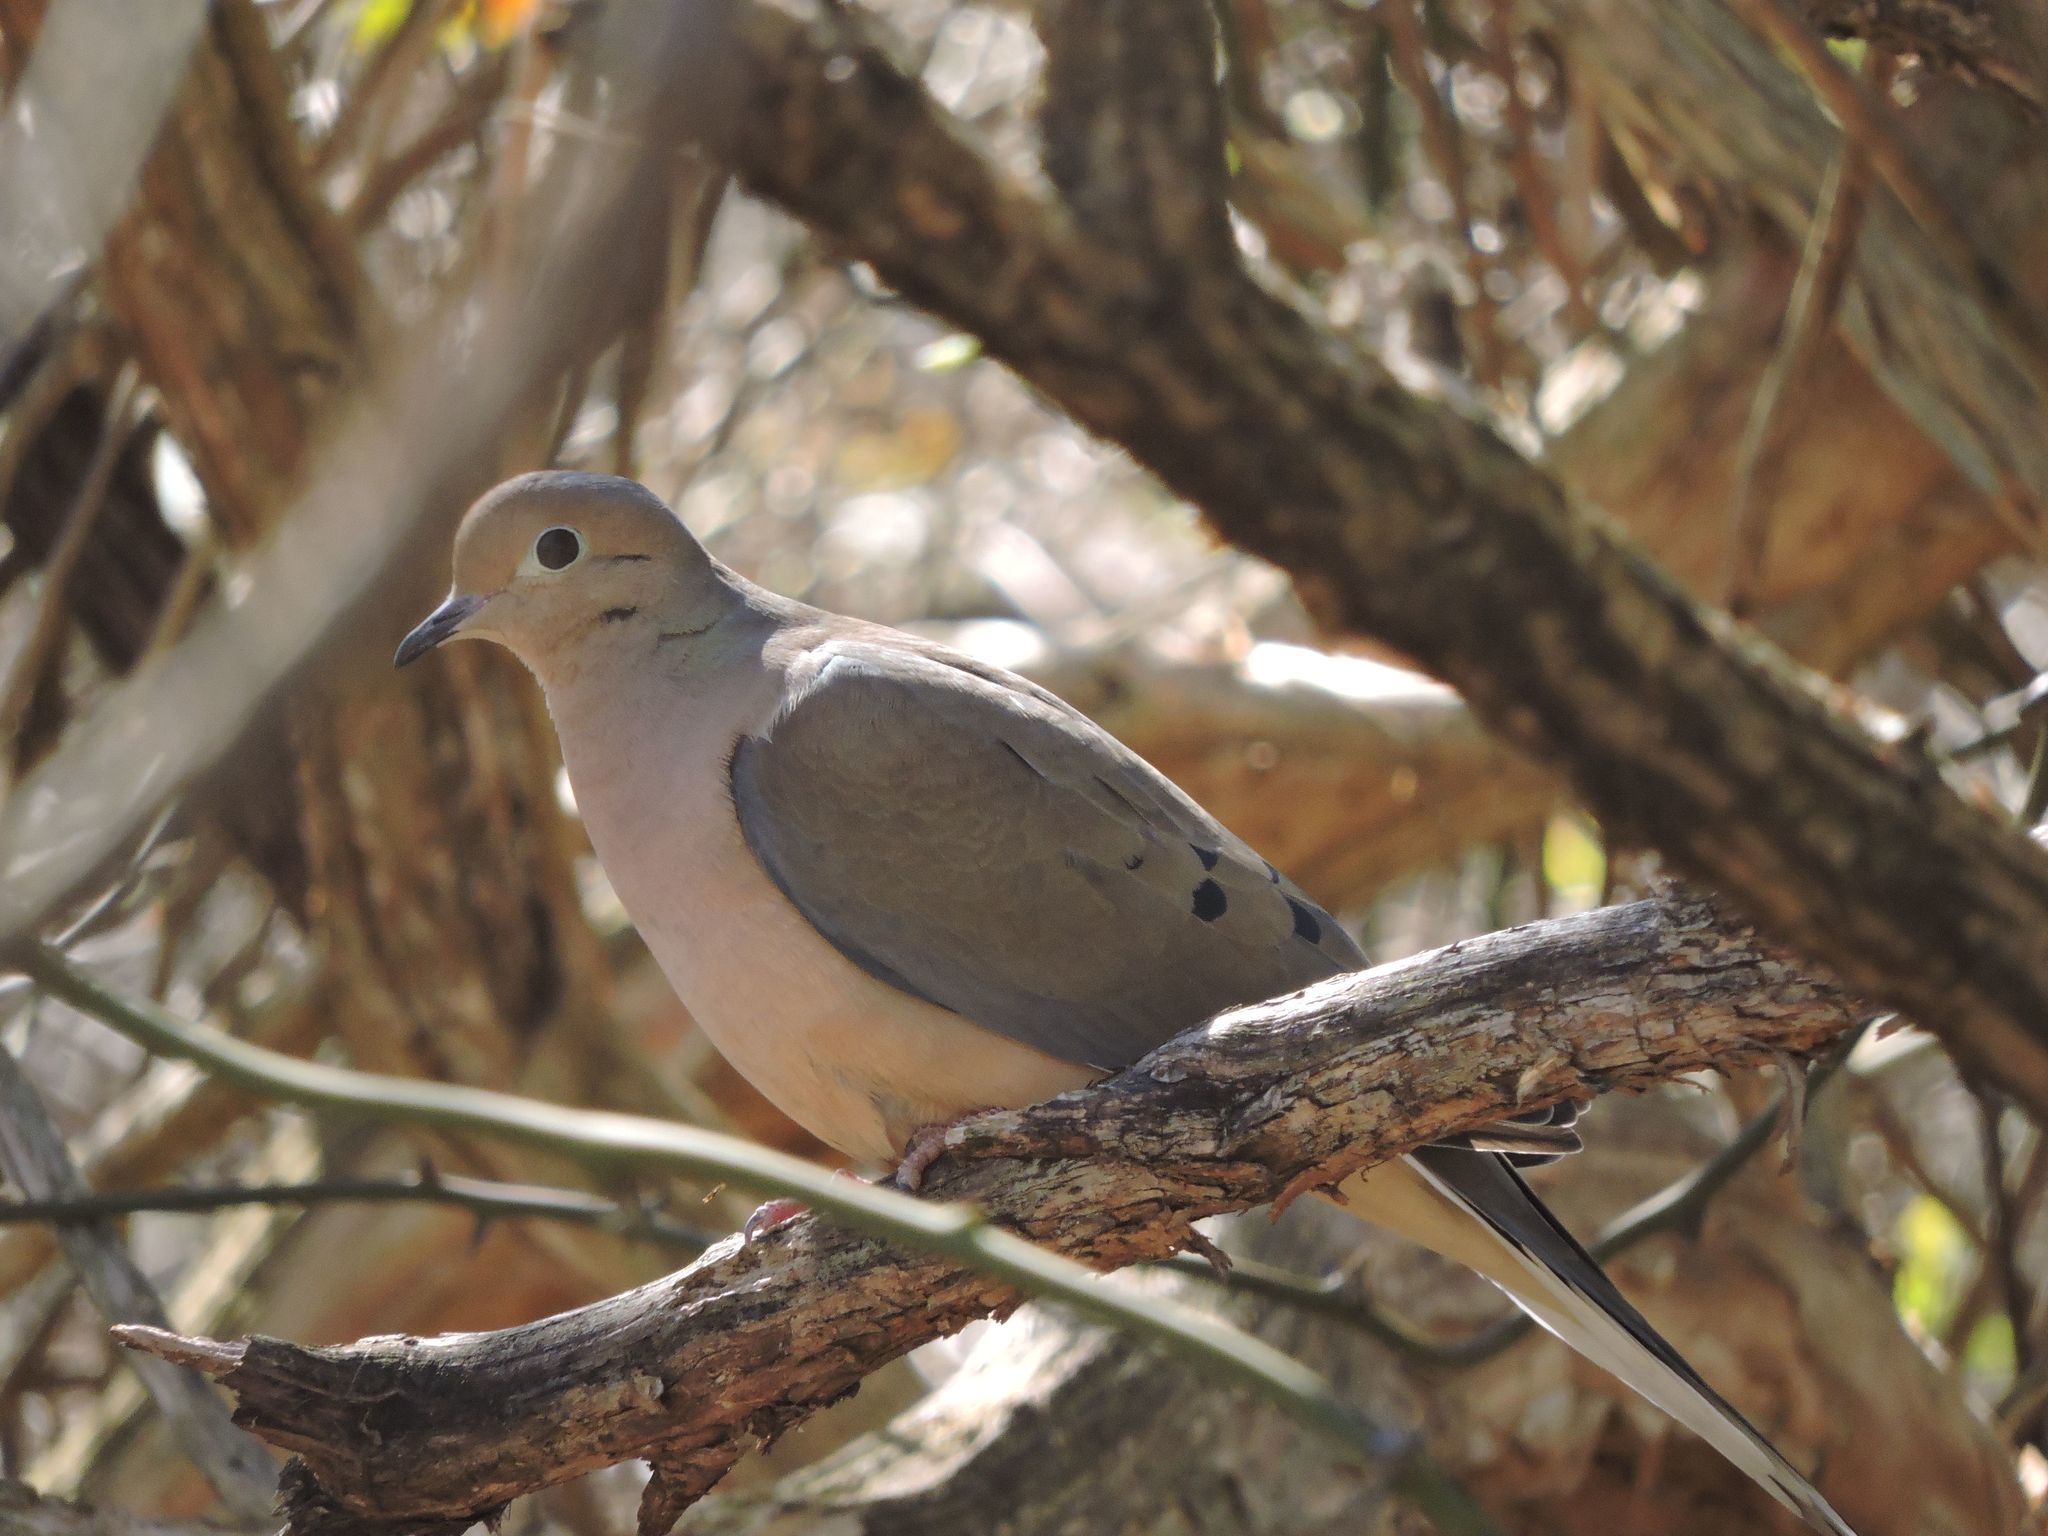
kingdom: Animalia
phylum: Chordata
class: Aves
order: Columbiformes
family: Columbidae
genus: Zenaida
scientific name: Zenaida macroura
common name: Mourning dove
